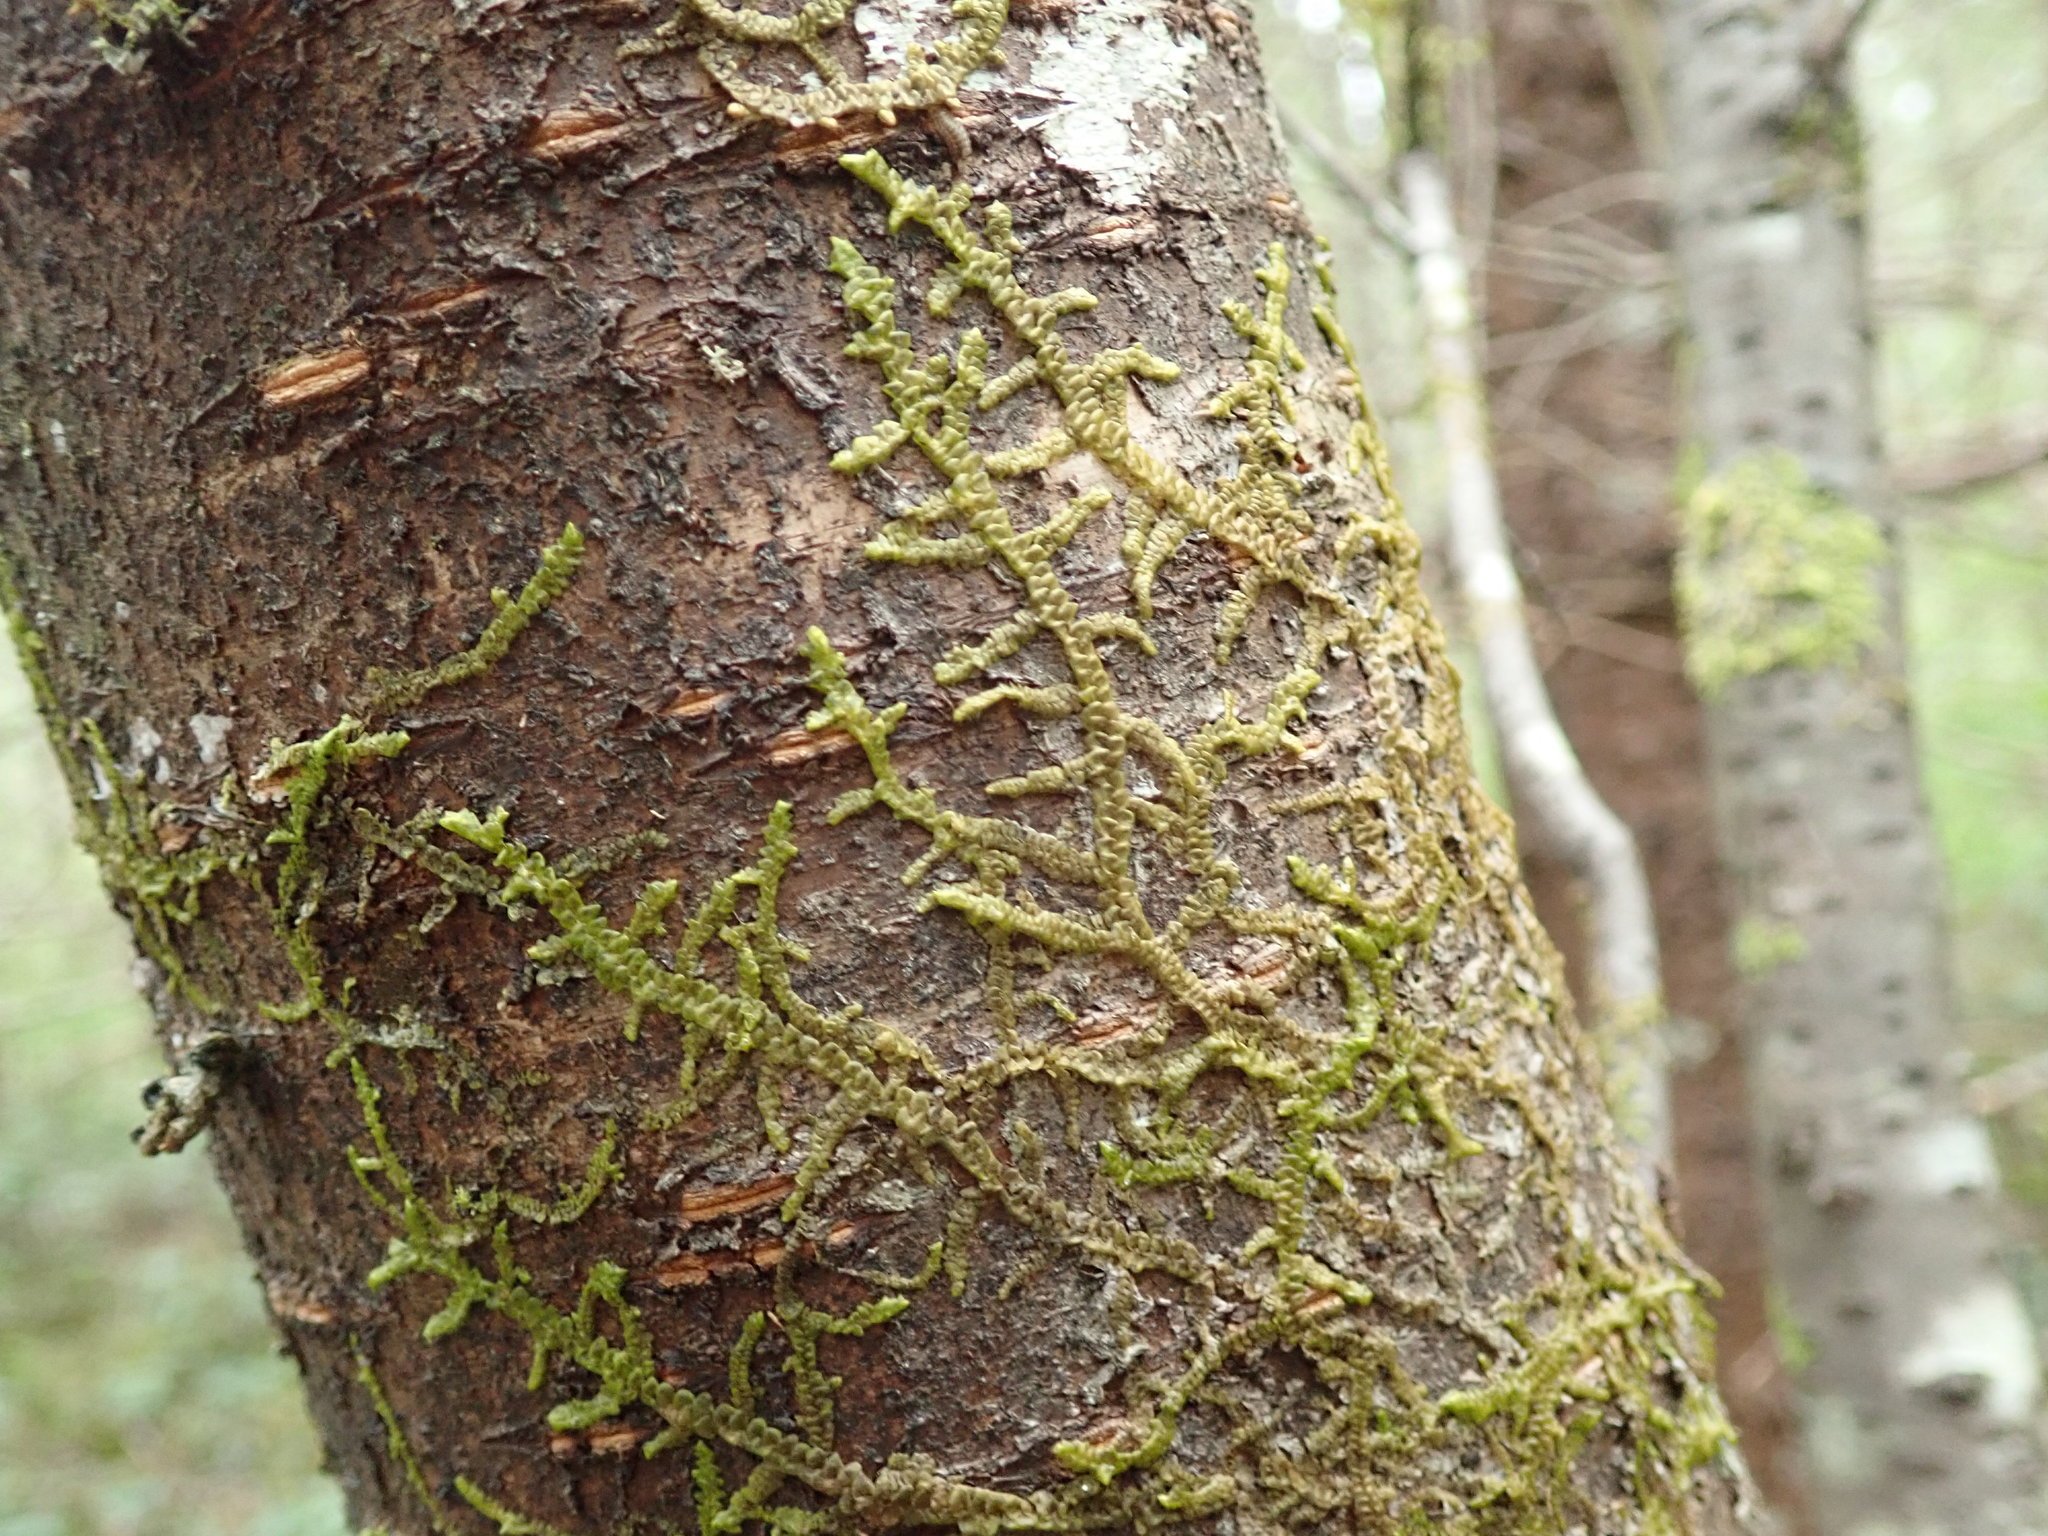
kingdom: Plantae
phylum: Marchantiophyta
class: Jungermanniopsida
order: Porellales
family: Porellaceae
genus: Porella
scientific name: Porella navicularis
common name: Tree ruffle liverwort
